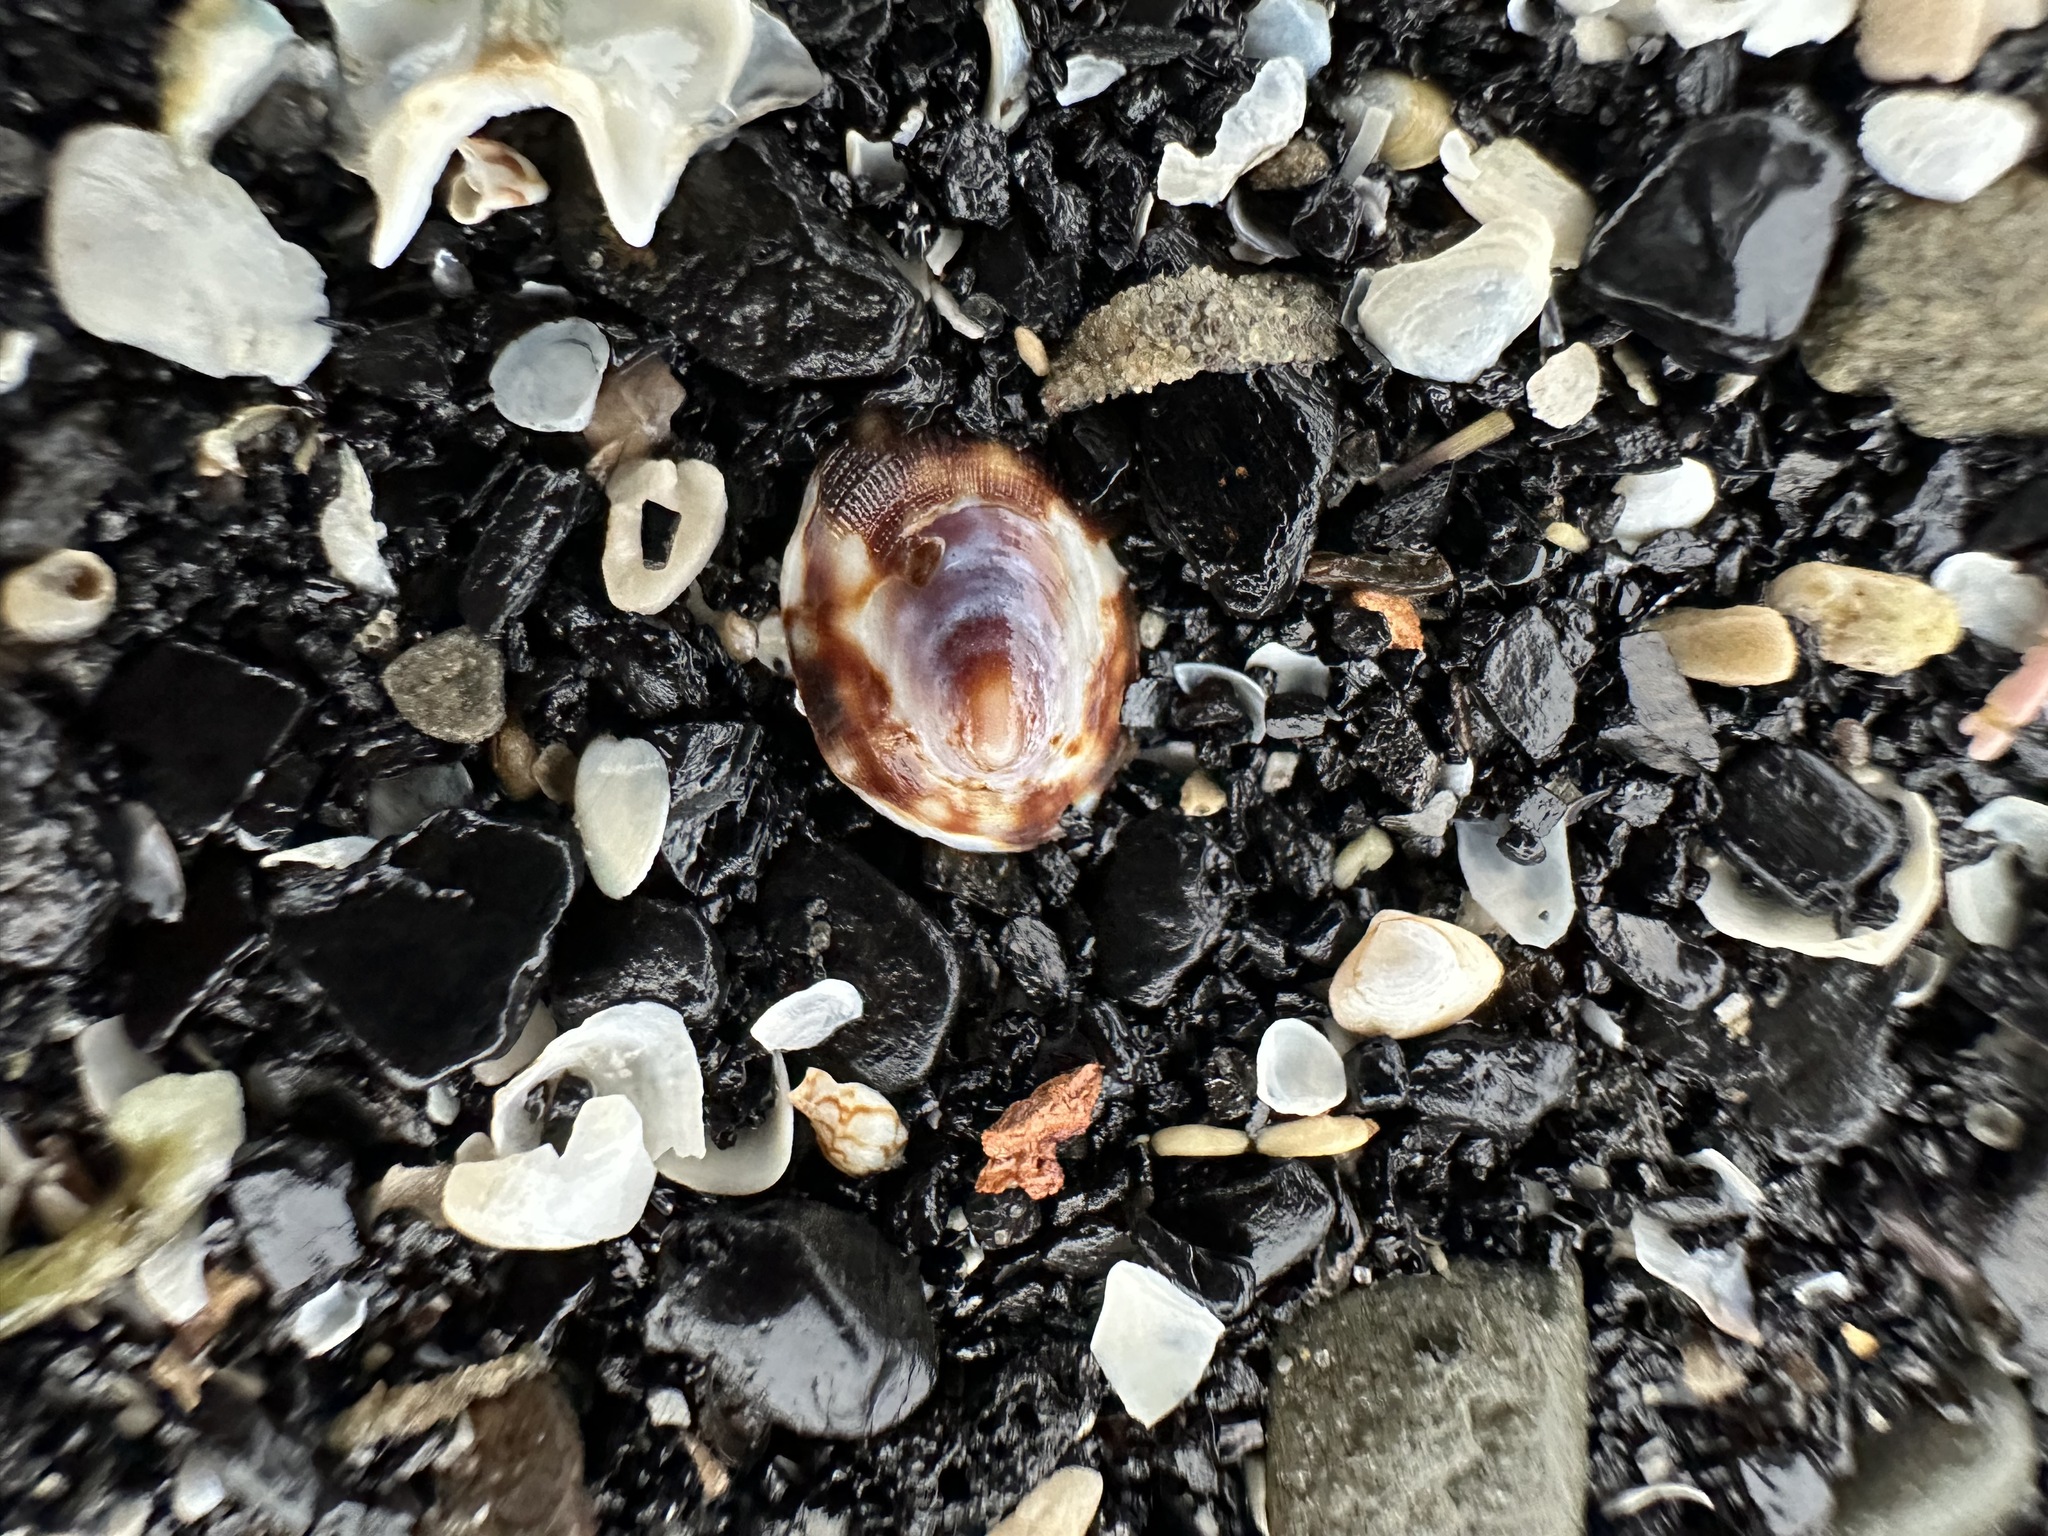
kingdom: Animalia
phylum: Mollusca
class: Gastropoda
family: Lottiidae
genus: Testudinalia
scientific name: Testudinalia testudinalis
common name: Common tortoiseshell limpet
